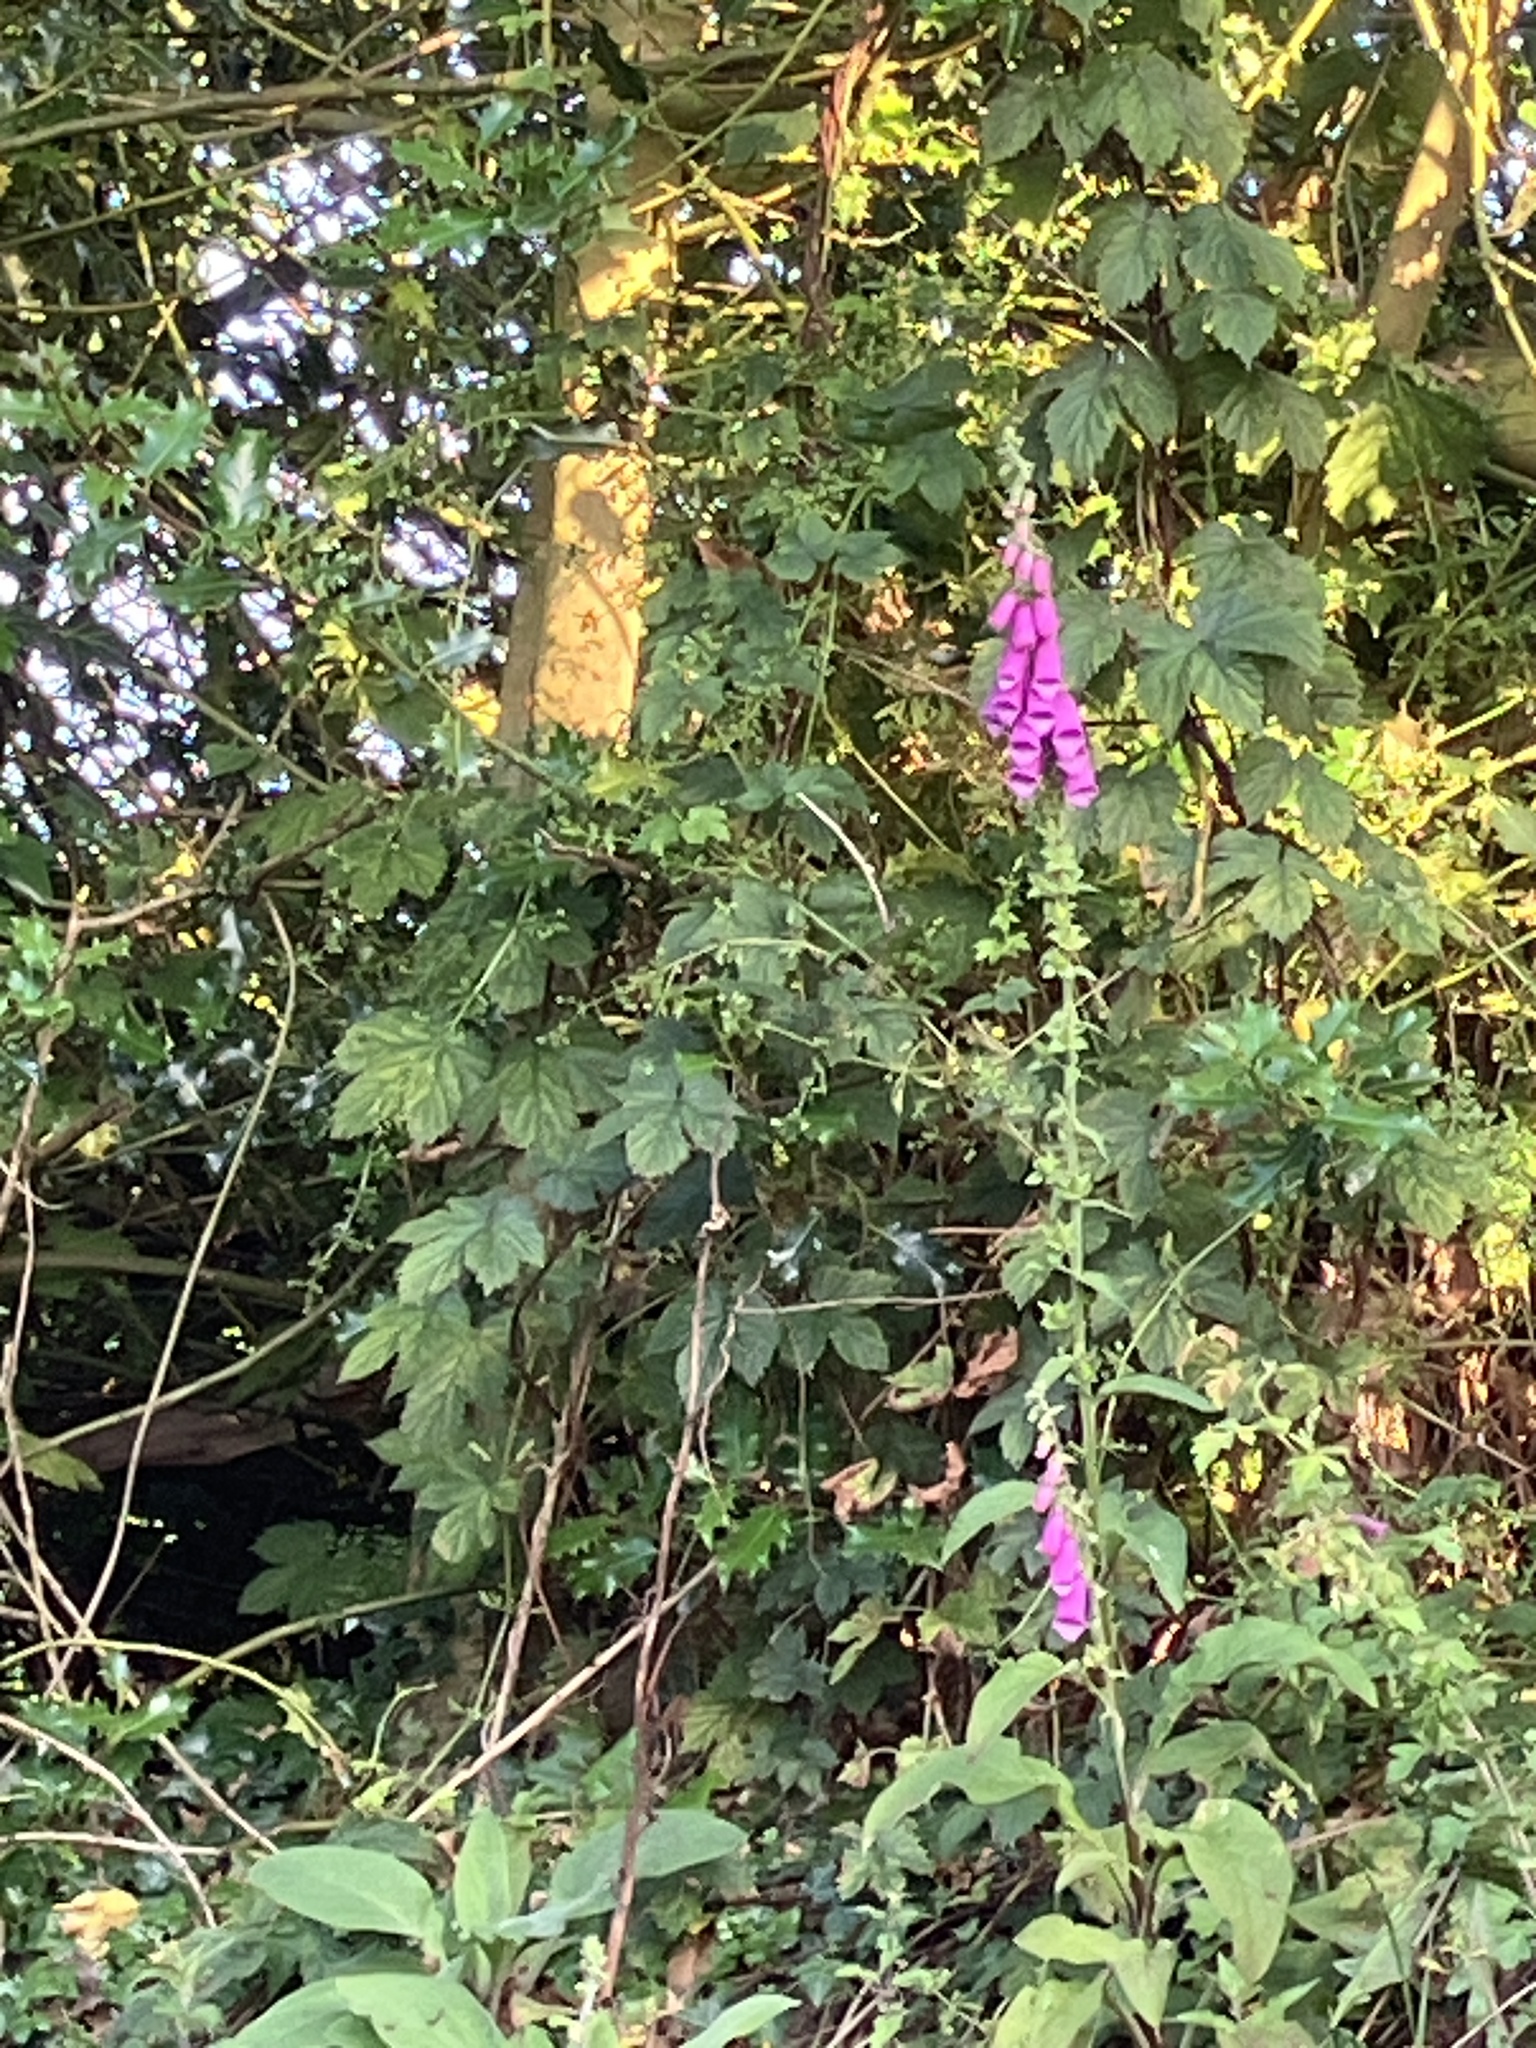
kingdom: Plantae
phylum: Tracheophyta
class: Magnoliopsida
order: Lamiales
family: Plantaginaceae
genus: Digitalis
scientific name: Digitalis purpurea
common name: Foxglove
